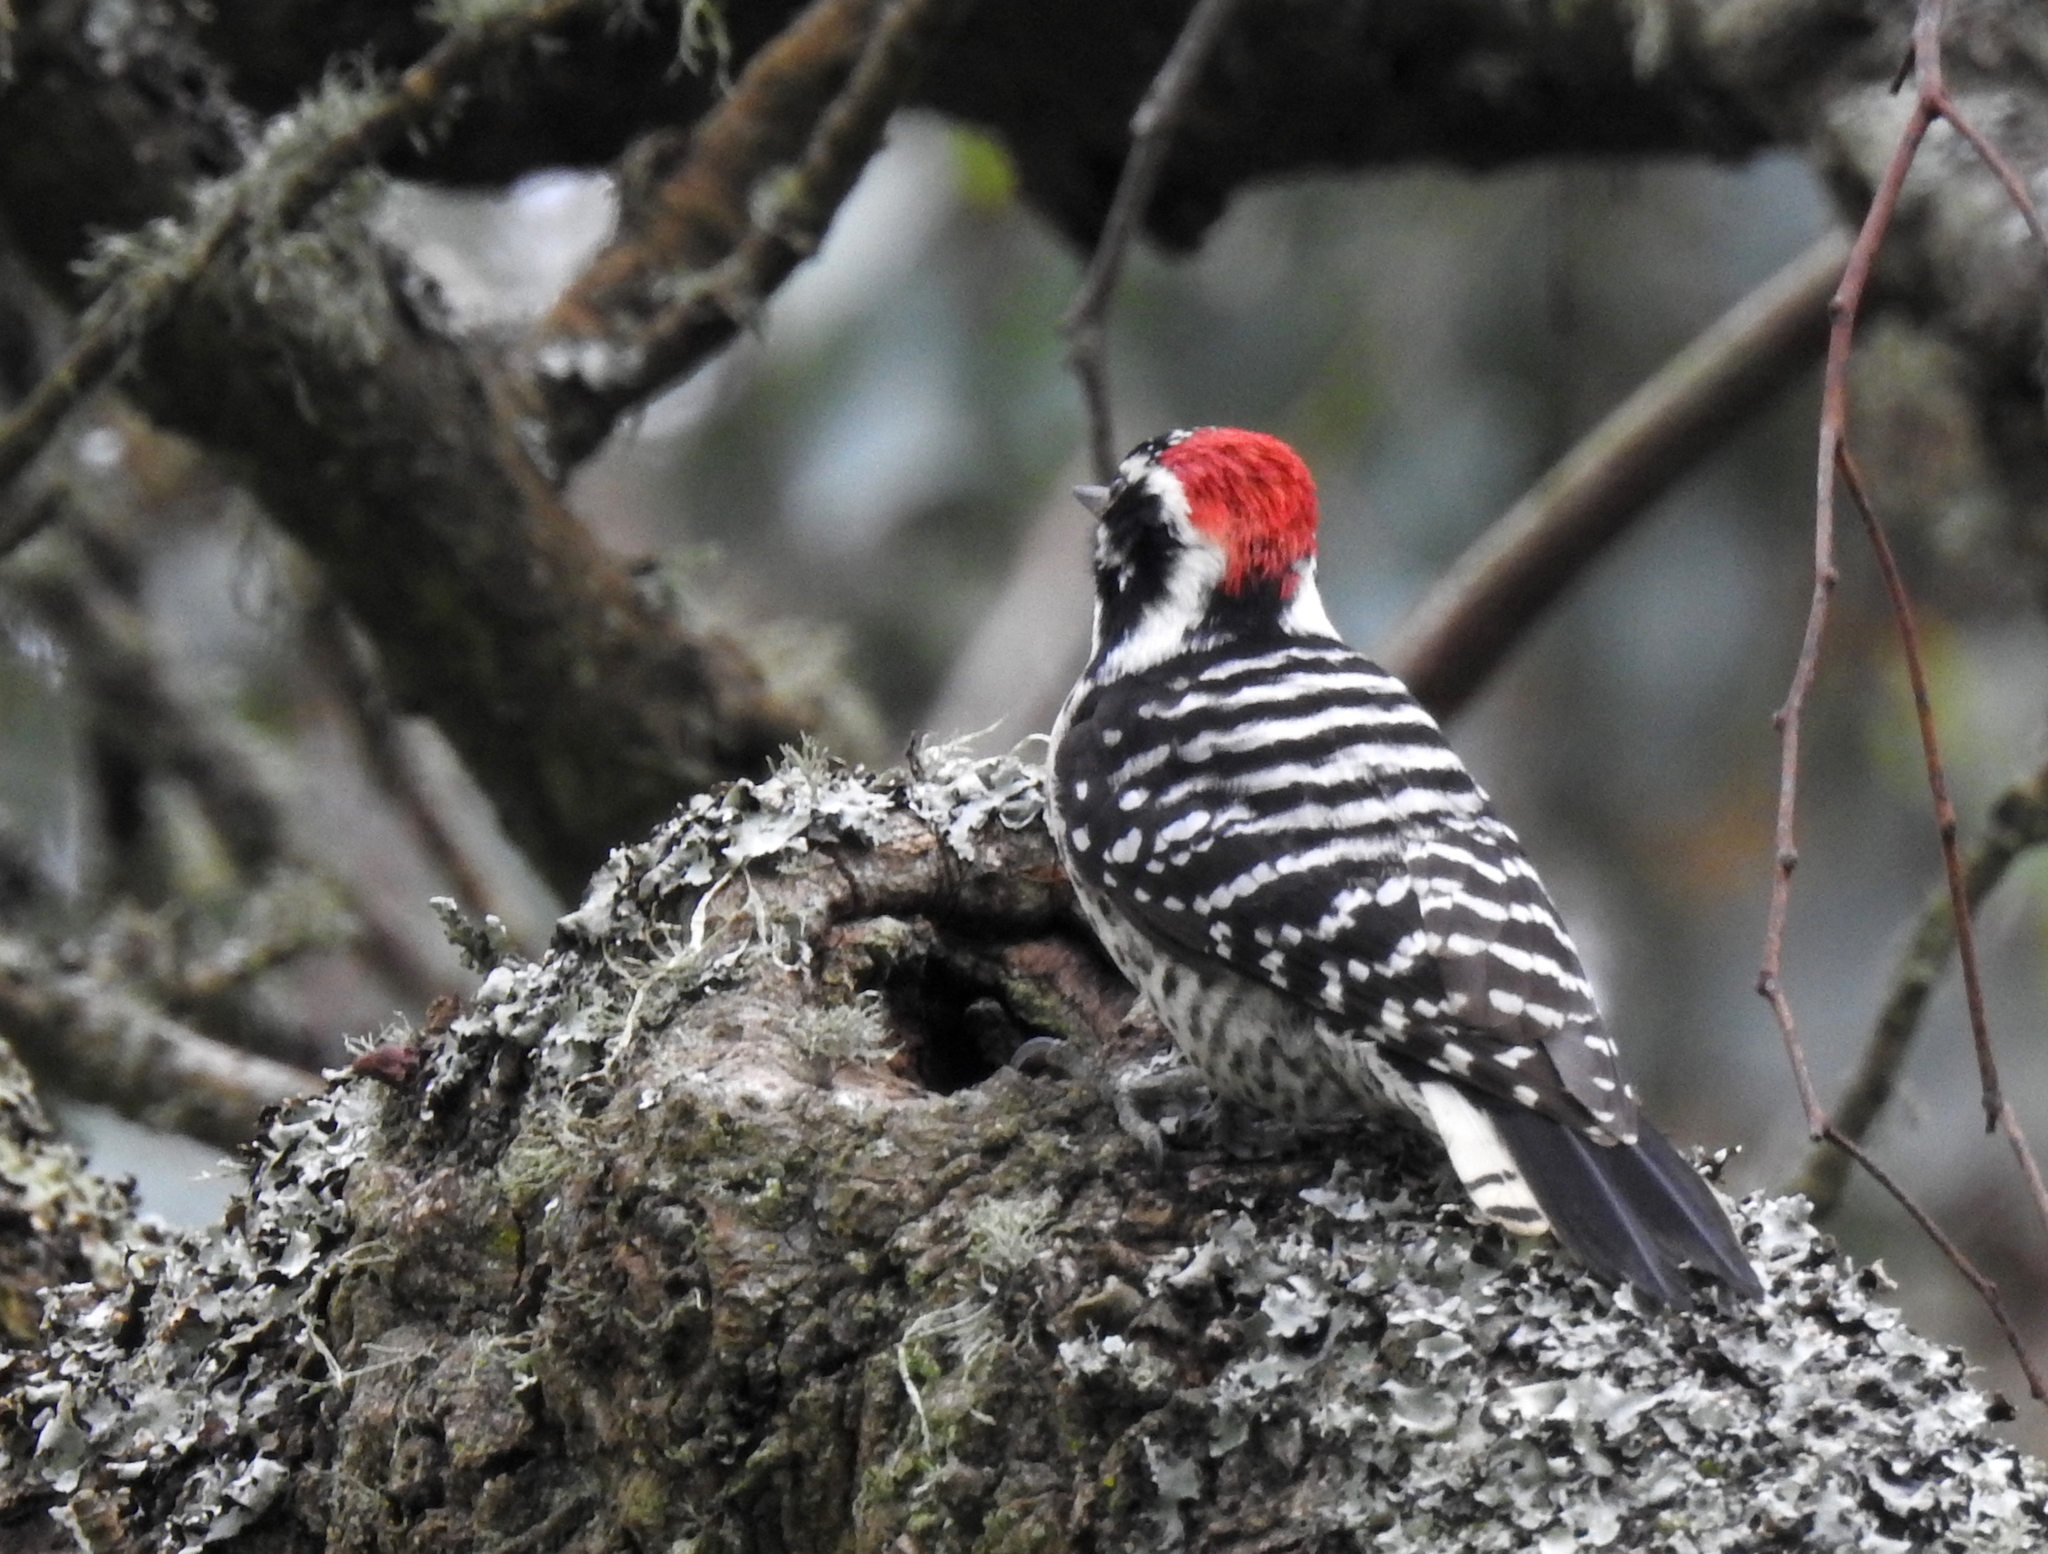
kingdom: Animalia
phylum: Chordata
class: Aves
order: Piciformes
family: Picidae
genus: Dryobates
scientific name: Dryobates nuttallii
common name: Nuttall's woodpecker
